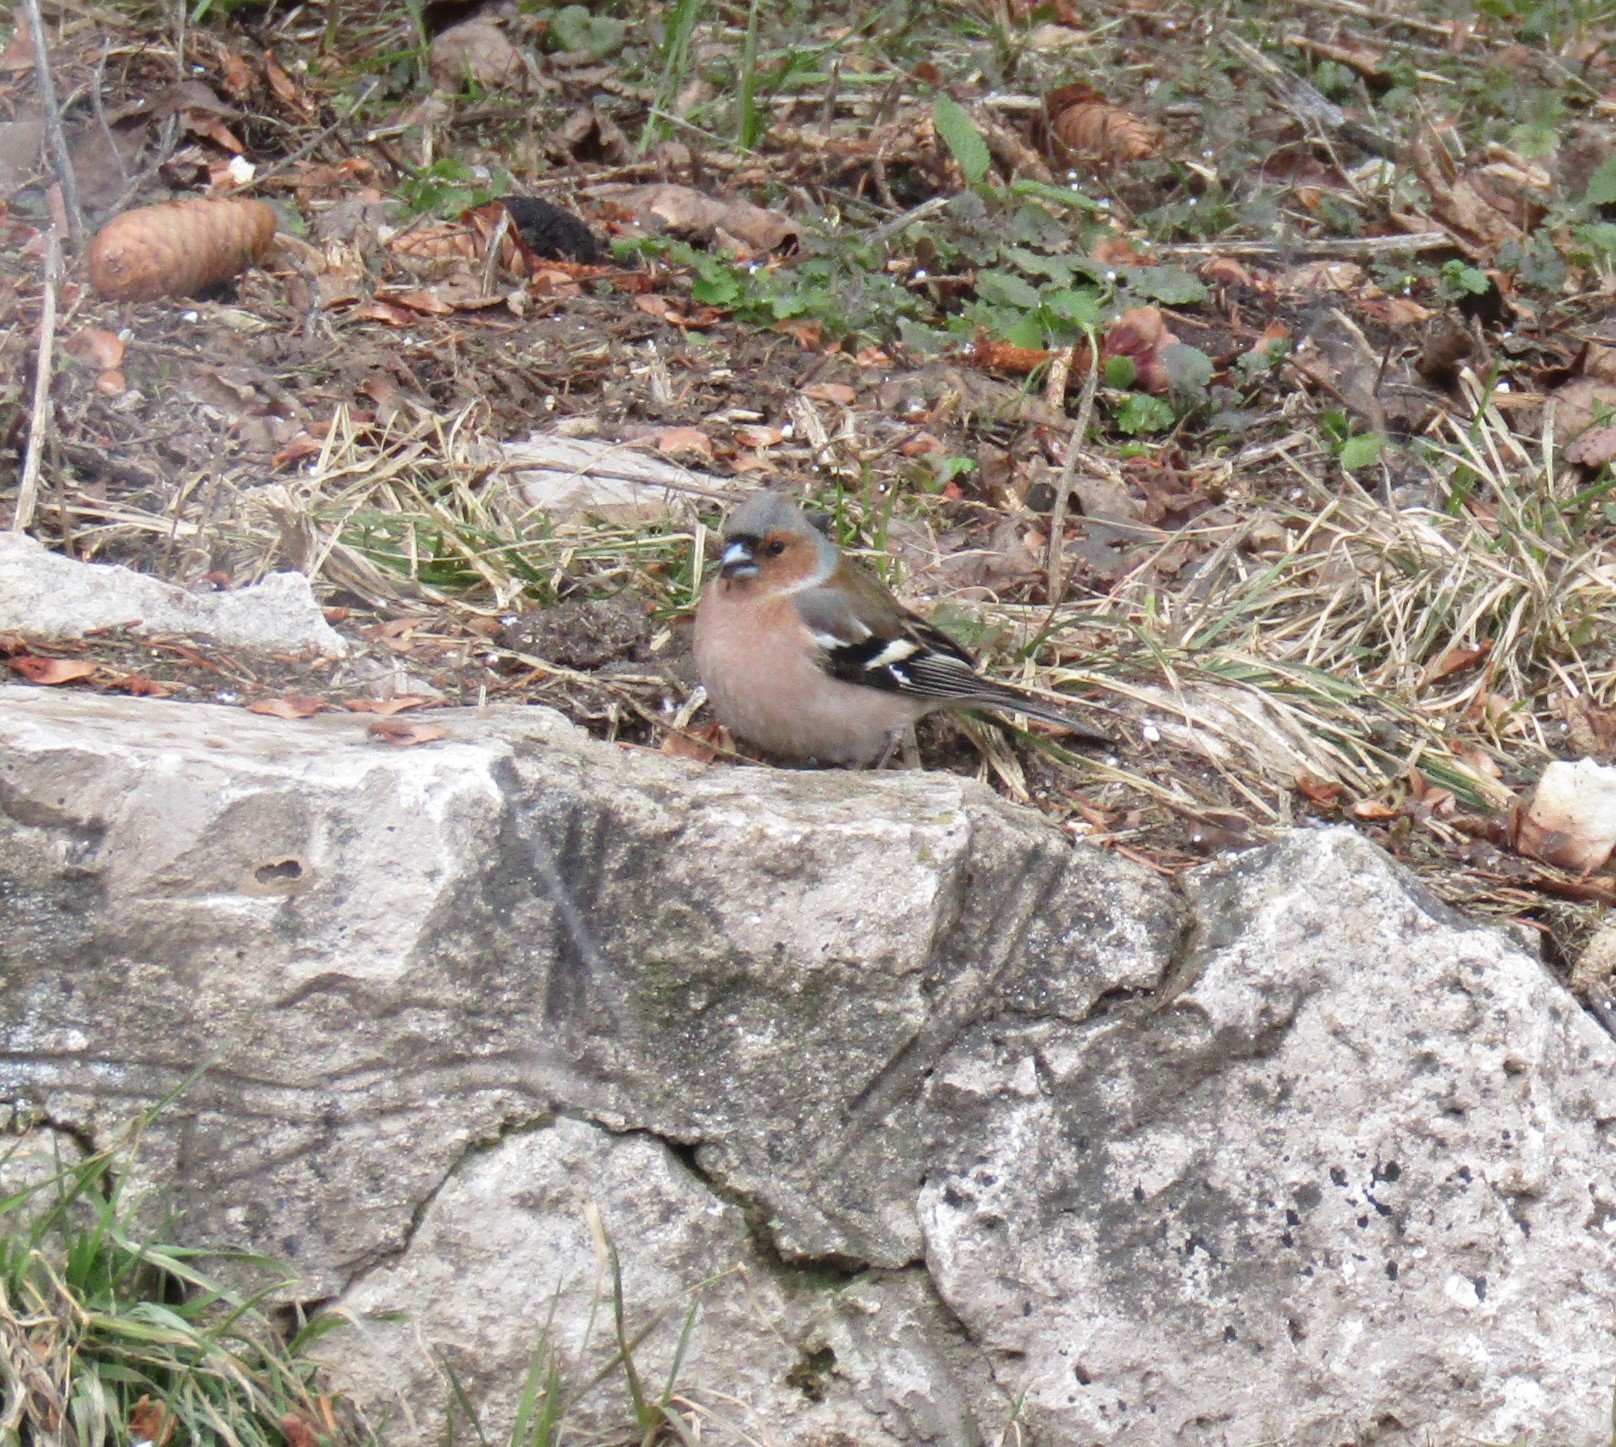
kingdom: Animalia
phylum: Chordata
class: Aves
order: Passeriformes
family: Fringillidae
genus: Fringilla
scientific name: Fringilla coelebs
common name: Common chaffinch
